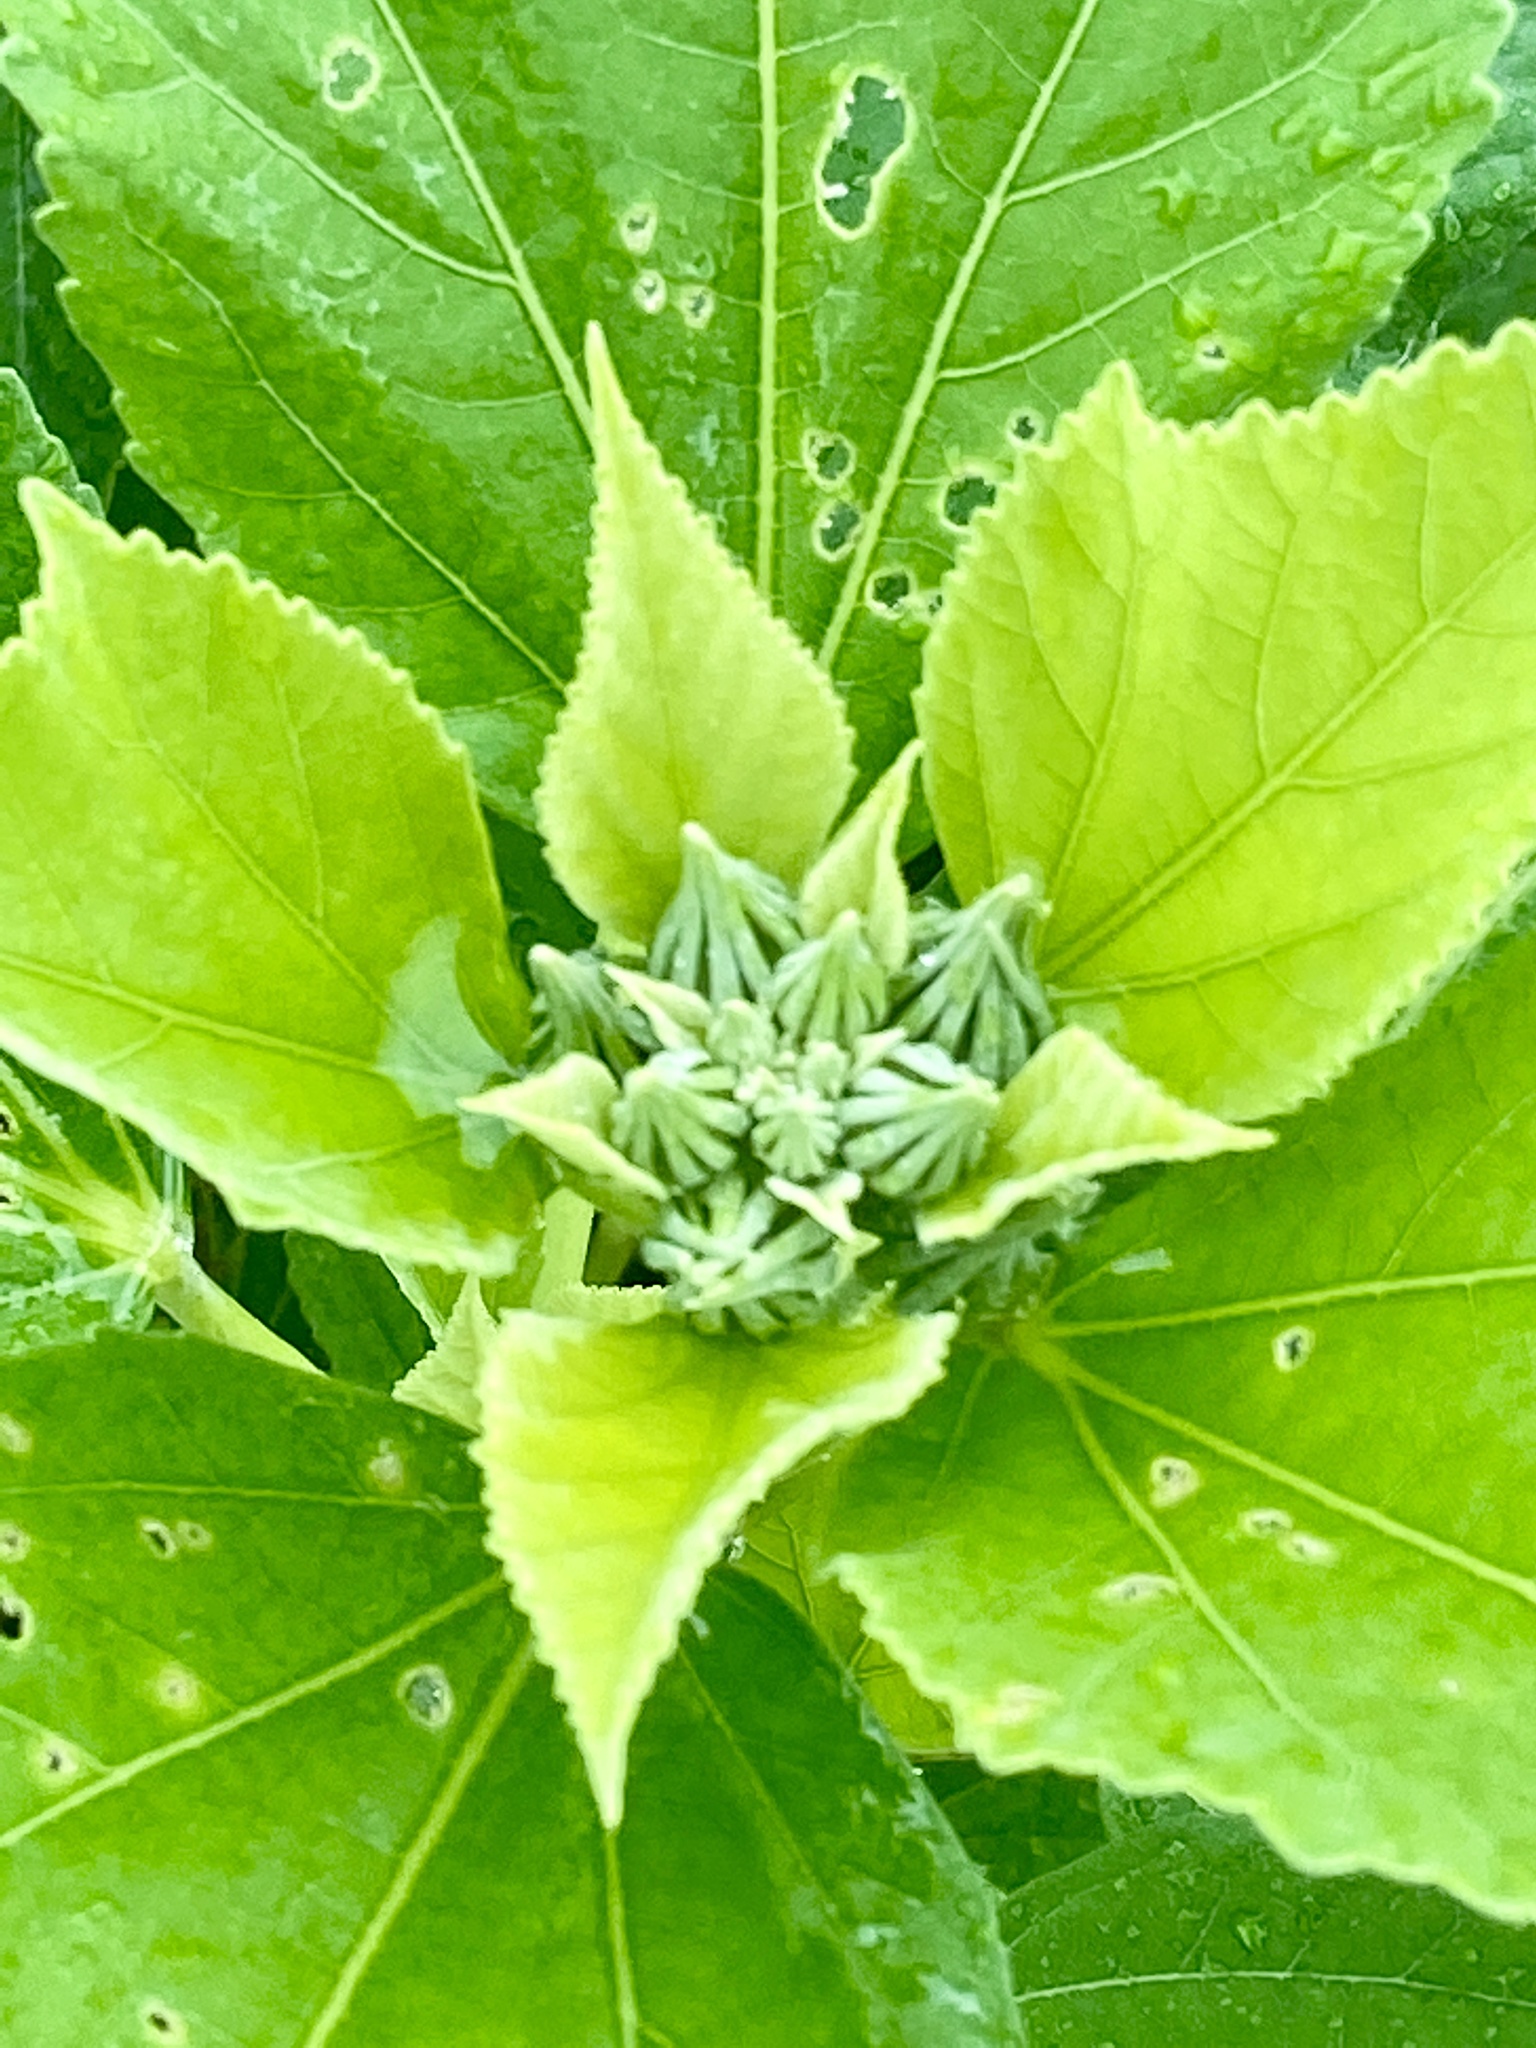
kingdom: Plantae
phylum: Tracheophyta
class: Magnoliopsida
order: Malvales
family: Malvaceae
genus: Hibiscus
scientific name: Hibiscus moscheutos
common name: Common rose-mallow
